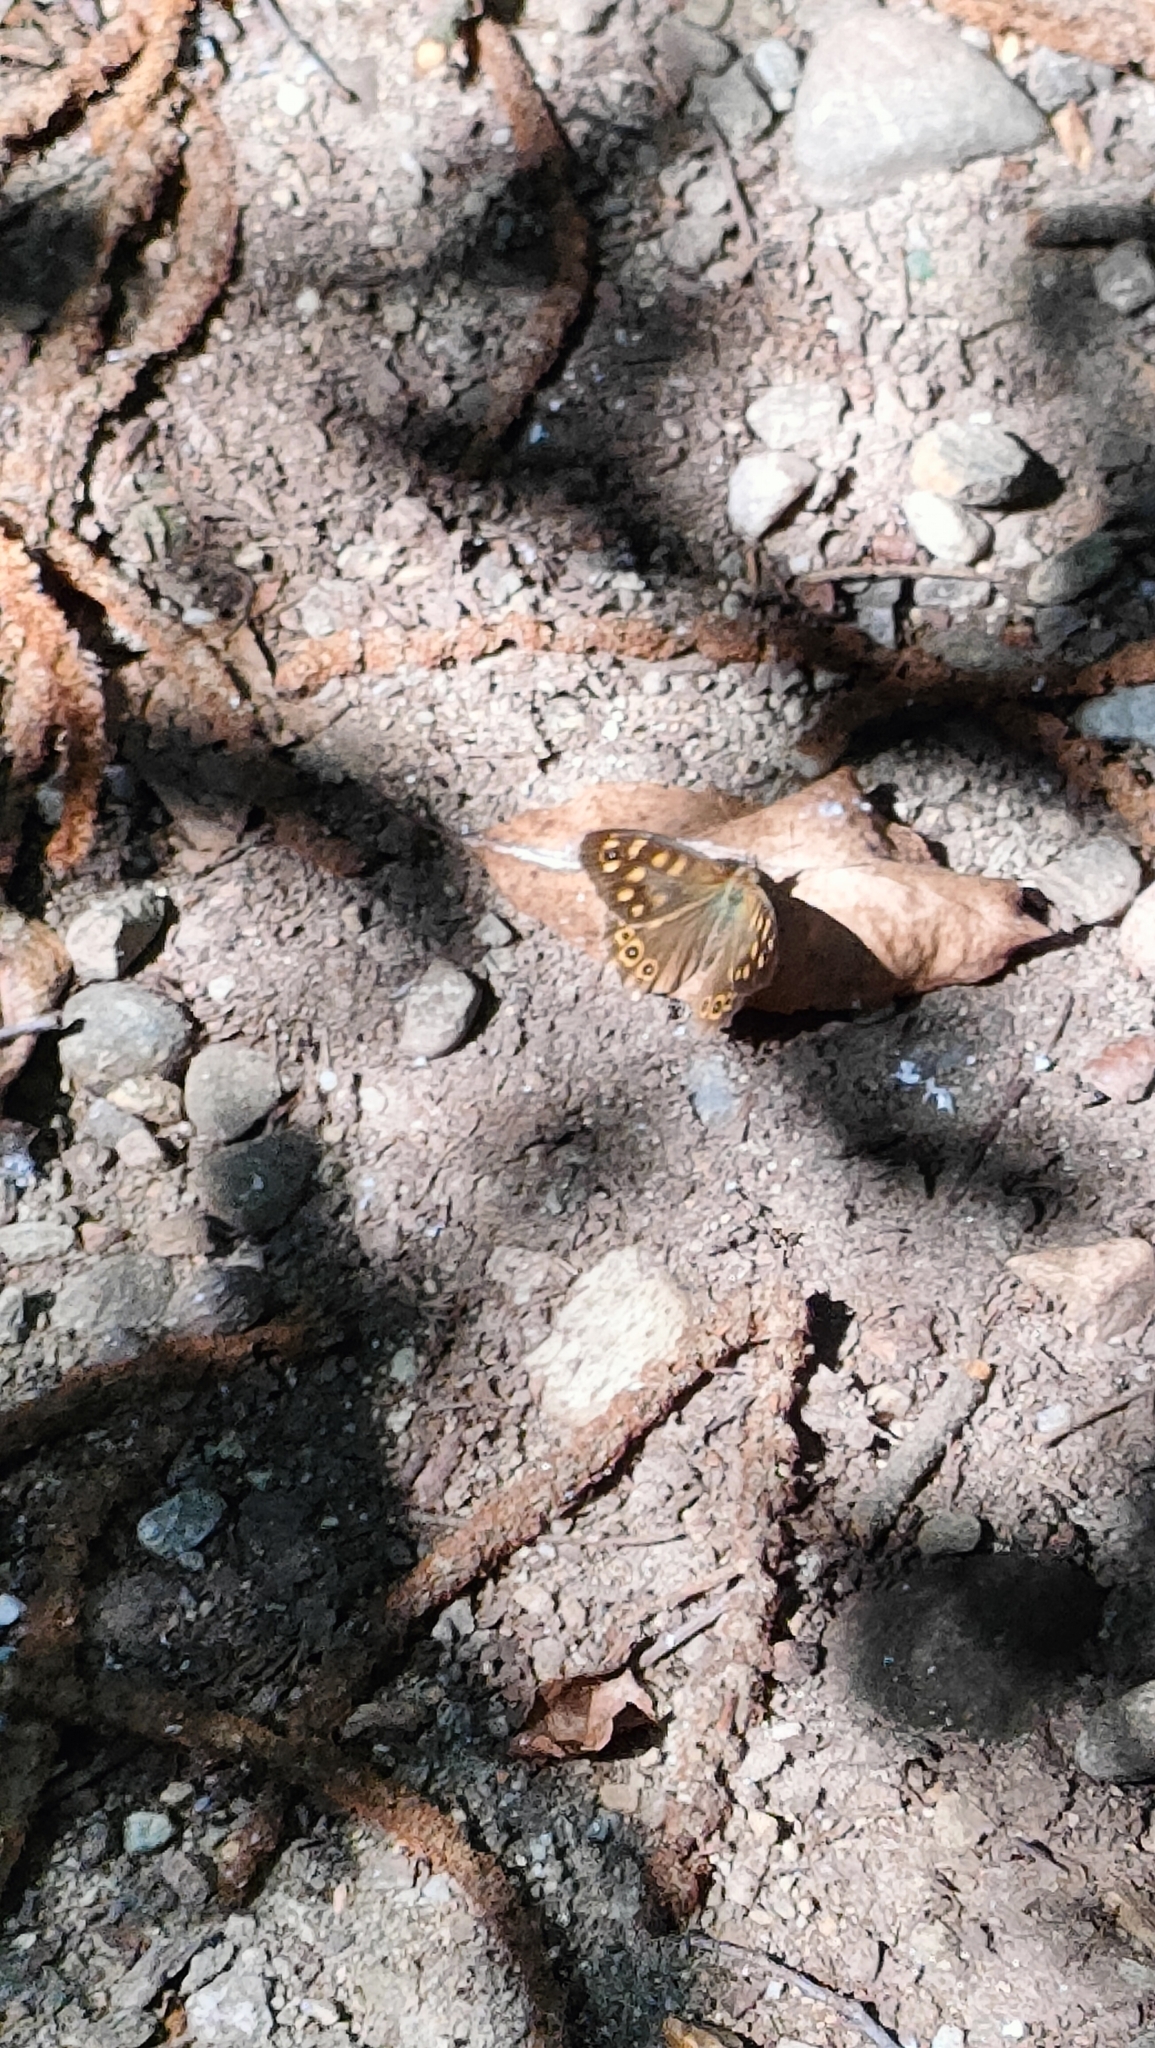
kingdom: Animalia
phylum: Arthropoda
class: Insecta
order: Lepidoptera
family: Nymphalidae
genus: Pararge
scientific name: Pararge aegeria
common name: Speckled wood
